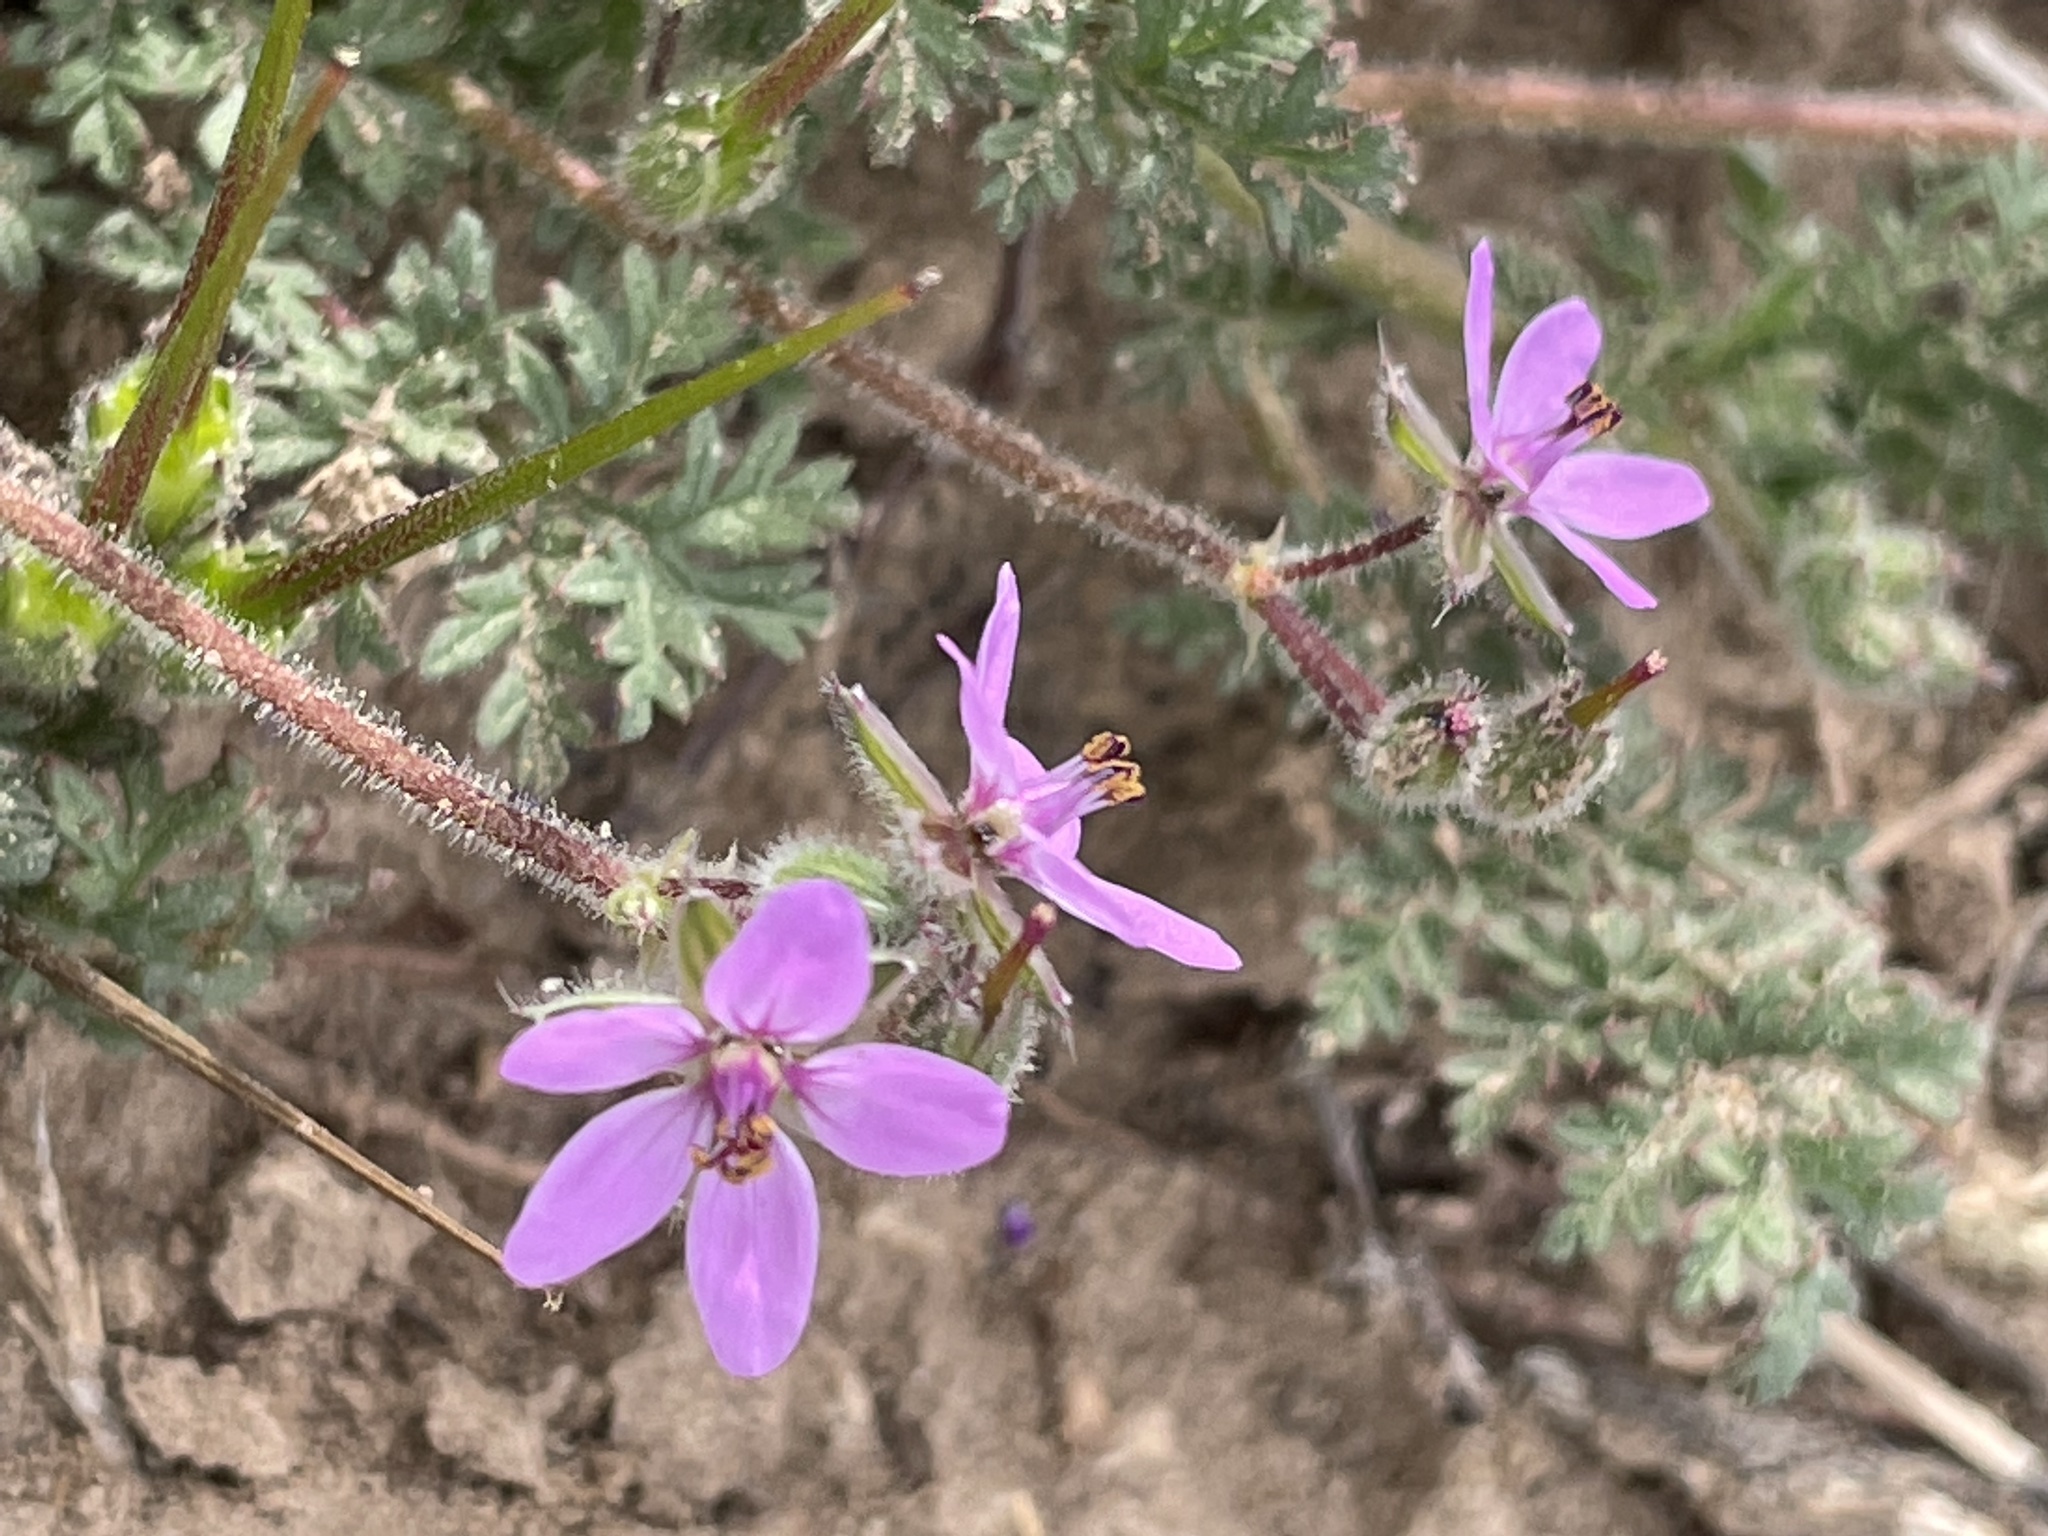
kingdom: Plantae
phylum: Tracheophyta
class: Magnoliopsida
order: Geraniales
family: Geraniaceae
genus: Erodium
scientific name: Erodium cicutarium
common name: Common stork's-bill
